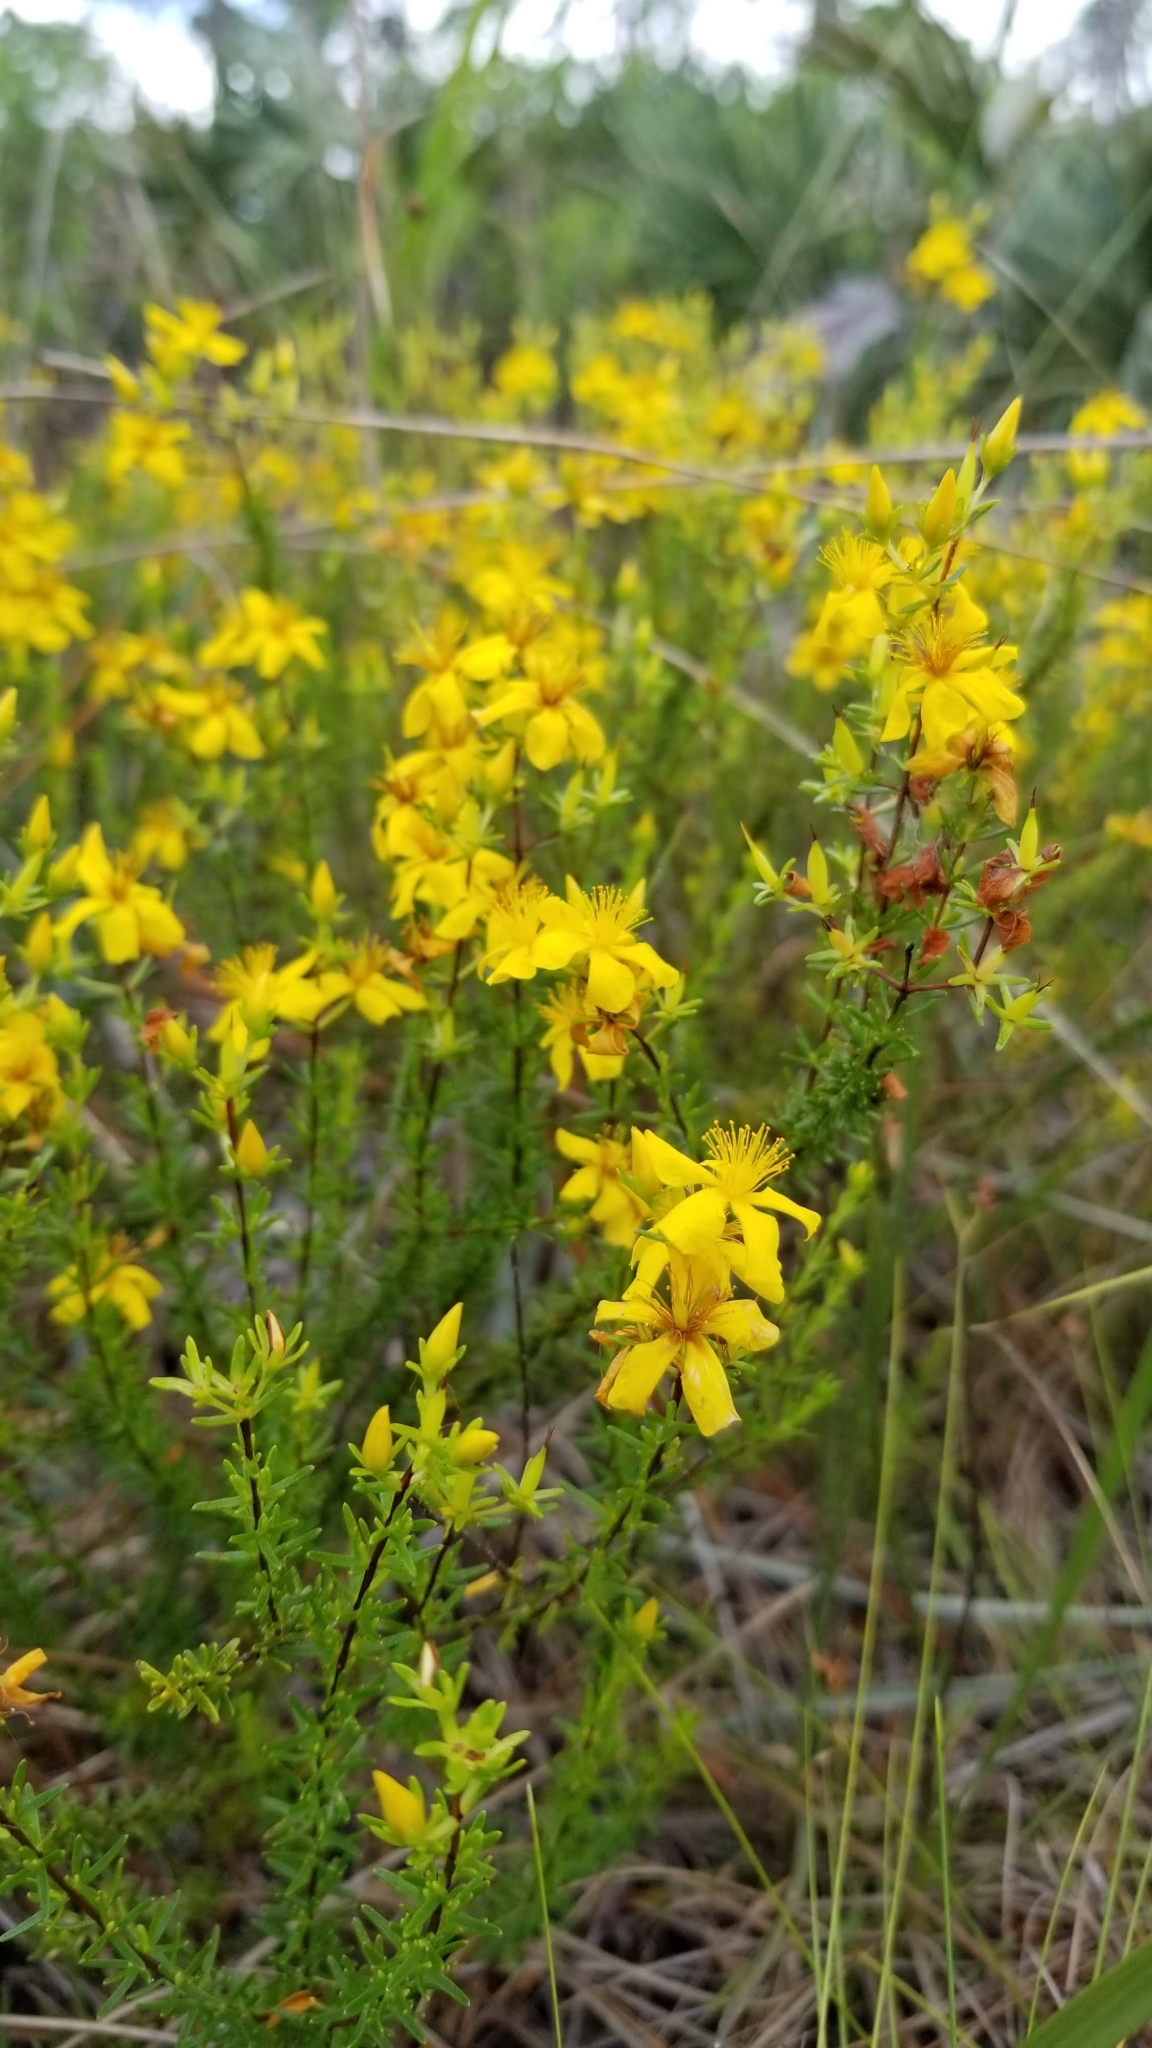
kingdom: Plantae
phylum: Tracheophyta
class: Magnoliopsida
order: Malpighiales
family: Hypericaceae
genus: Hypericum
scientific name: Hypericum tenuifolium
